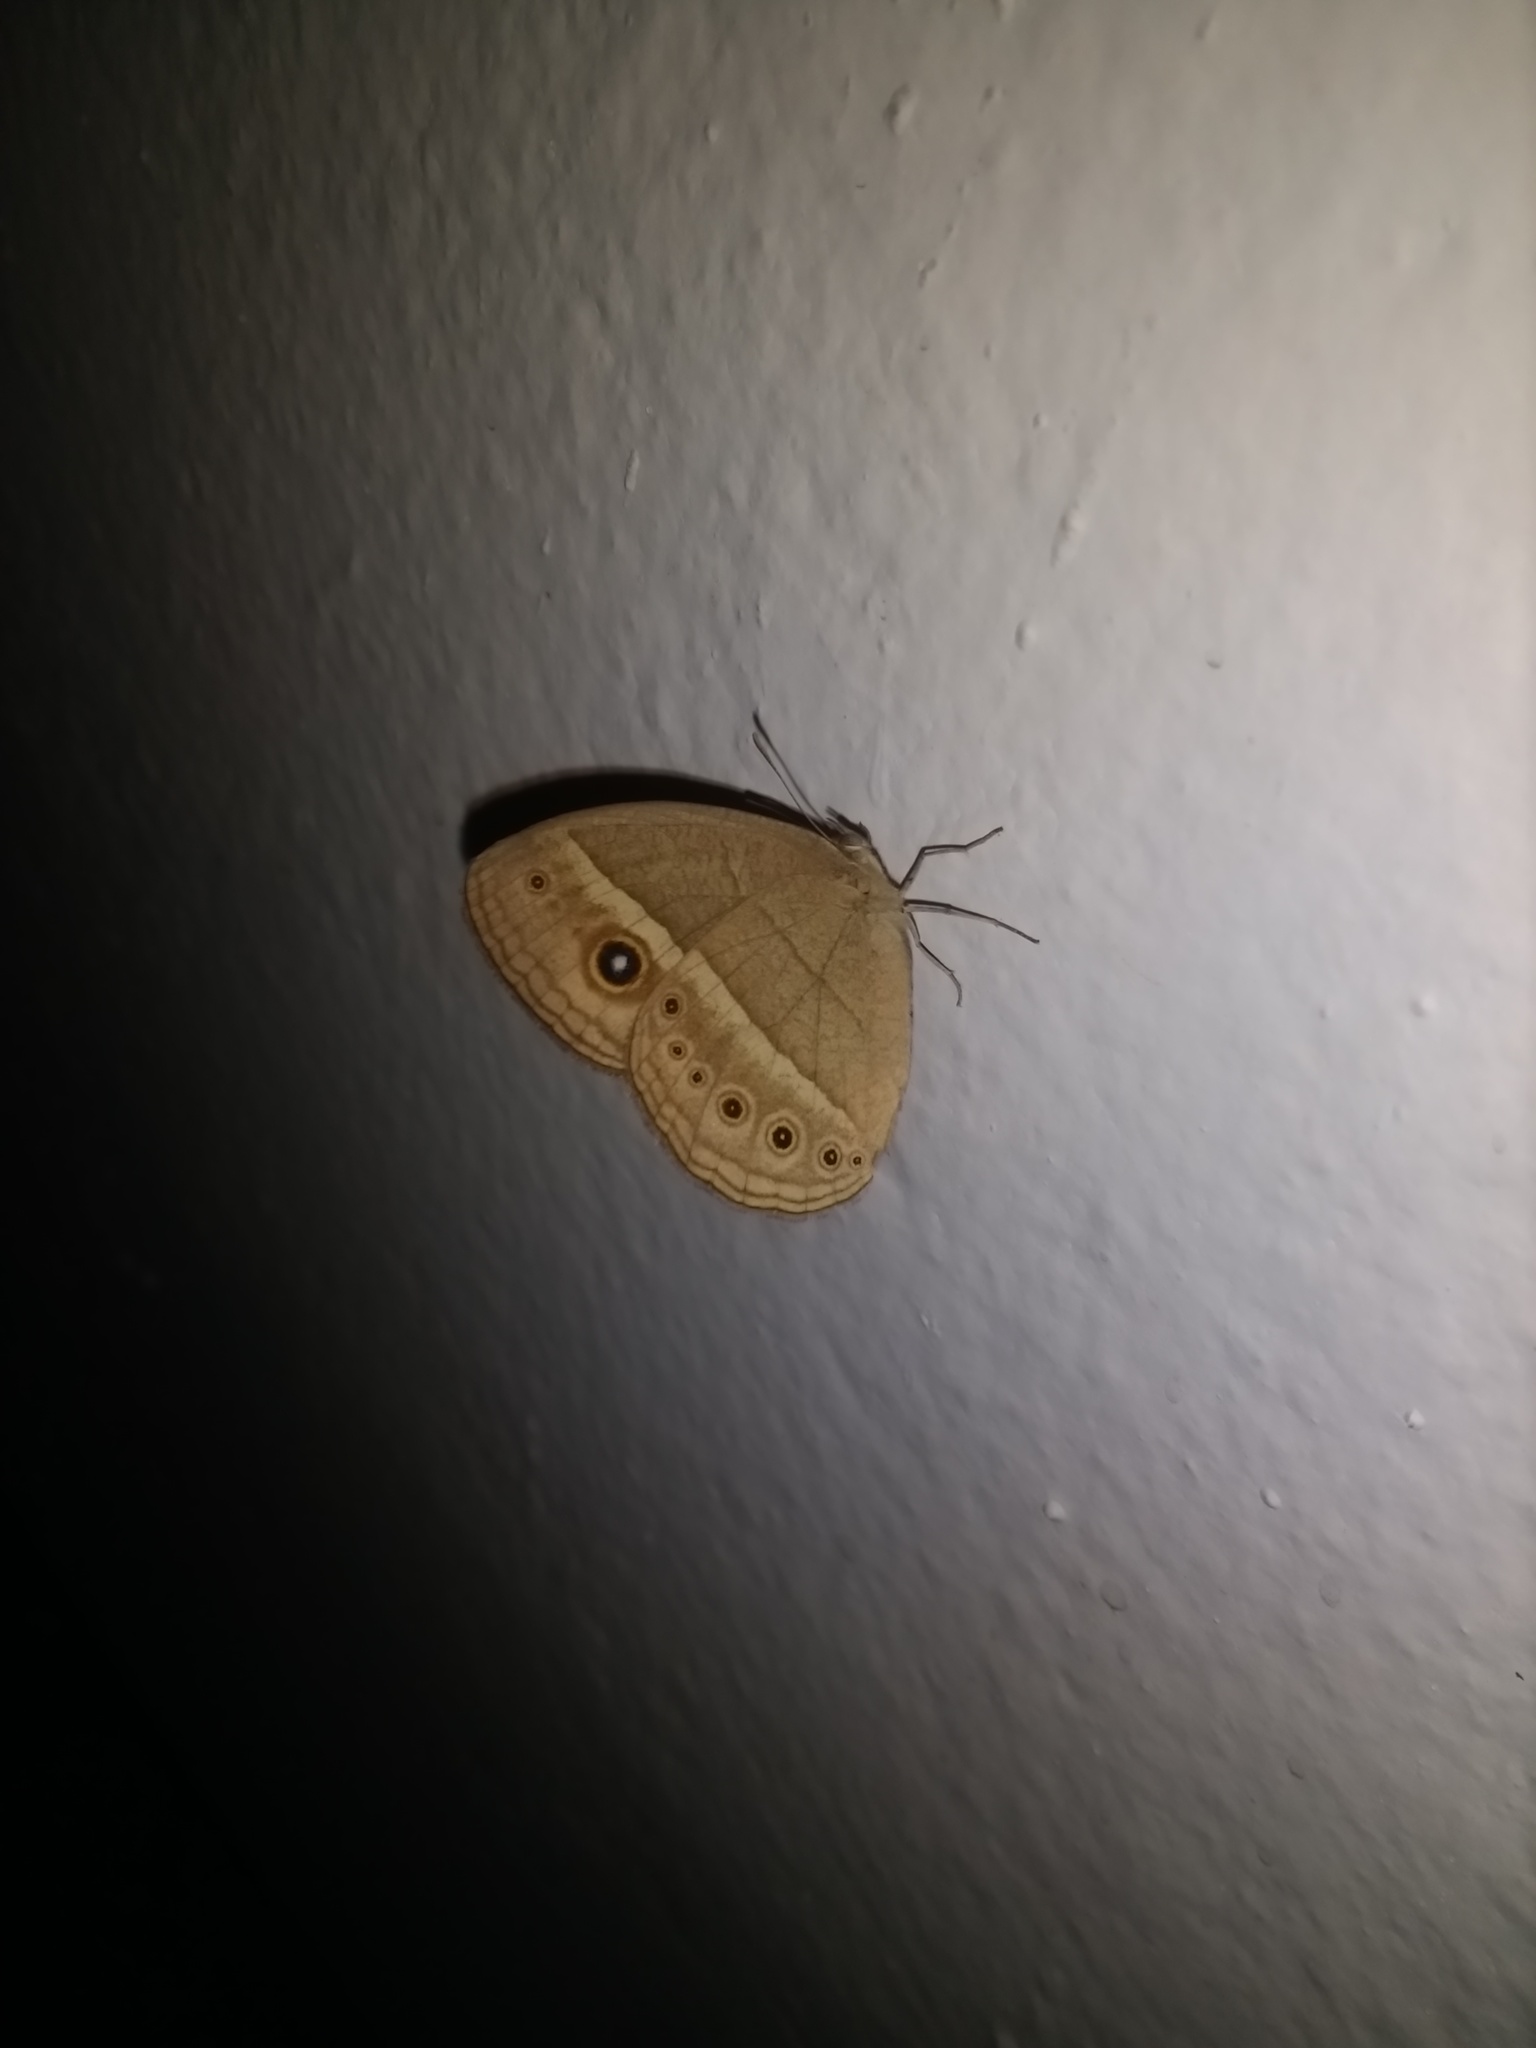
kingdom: Animalia
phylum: Arthropoda
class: Insecta
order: Lepidoptera
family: Nymphalidae
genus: Heteropsis
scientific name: Heteropsis perspicua
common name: Eyed bush brown
